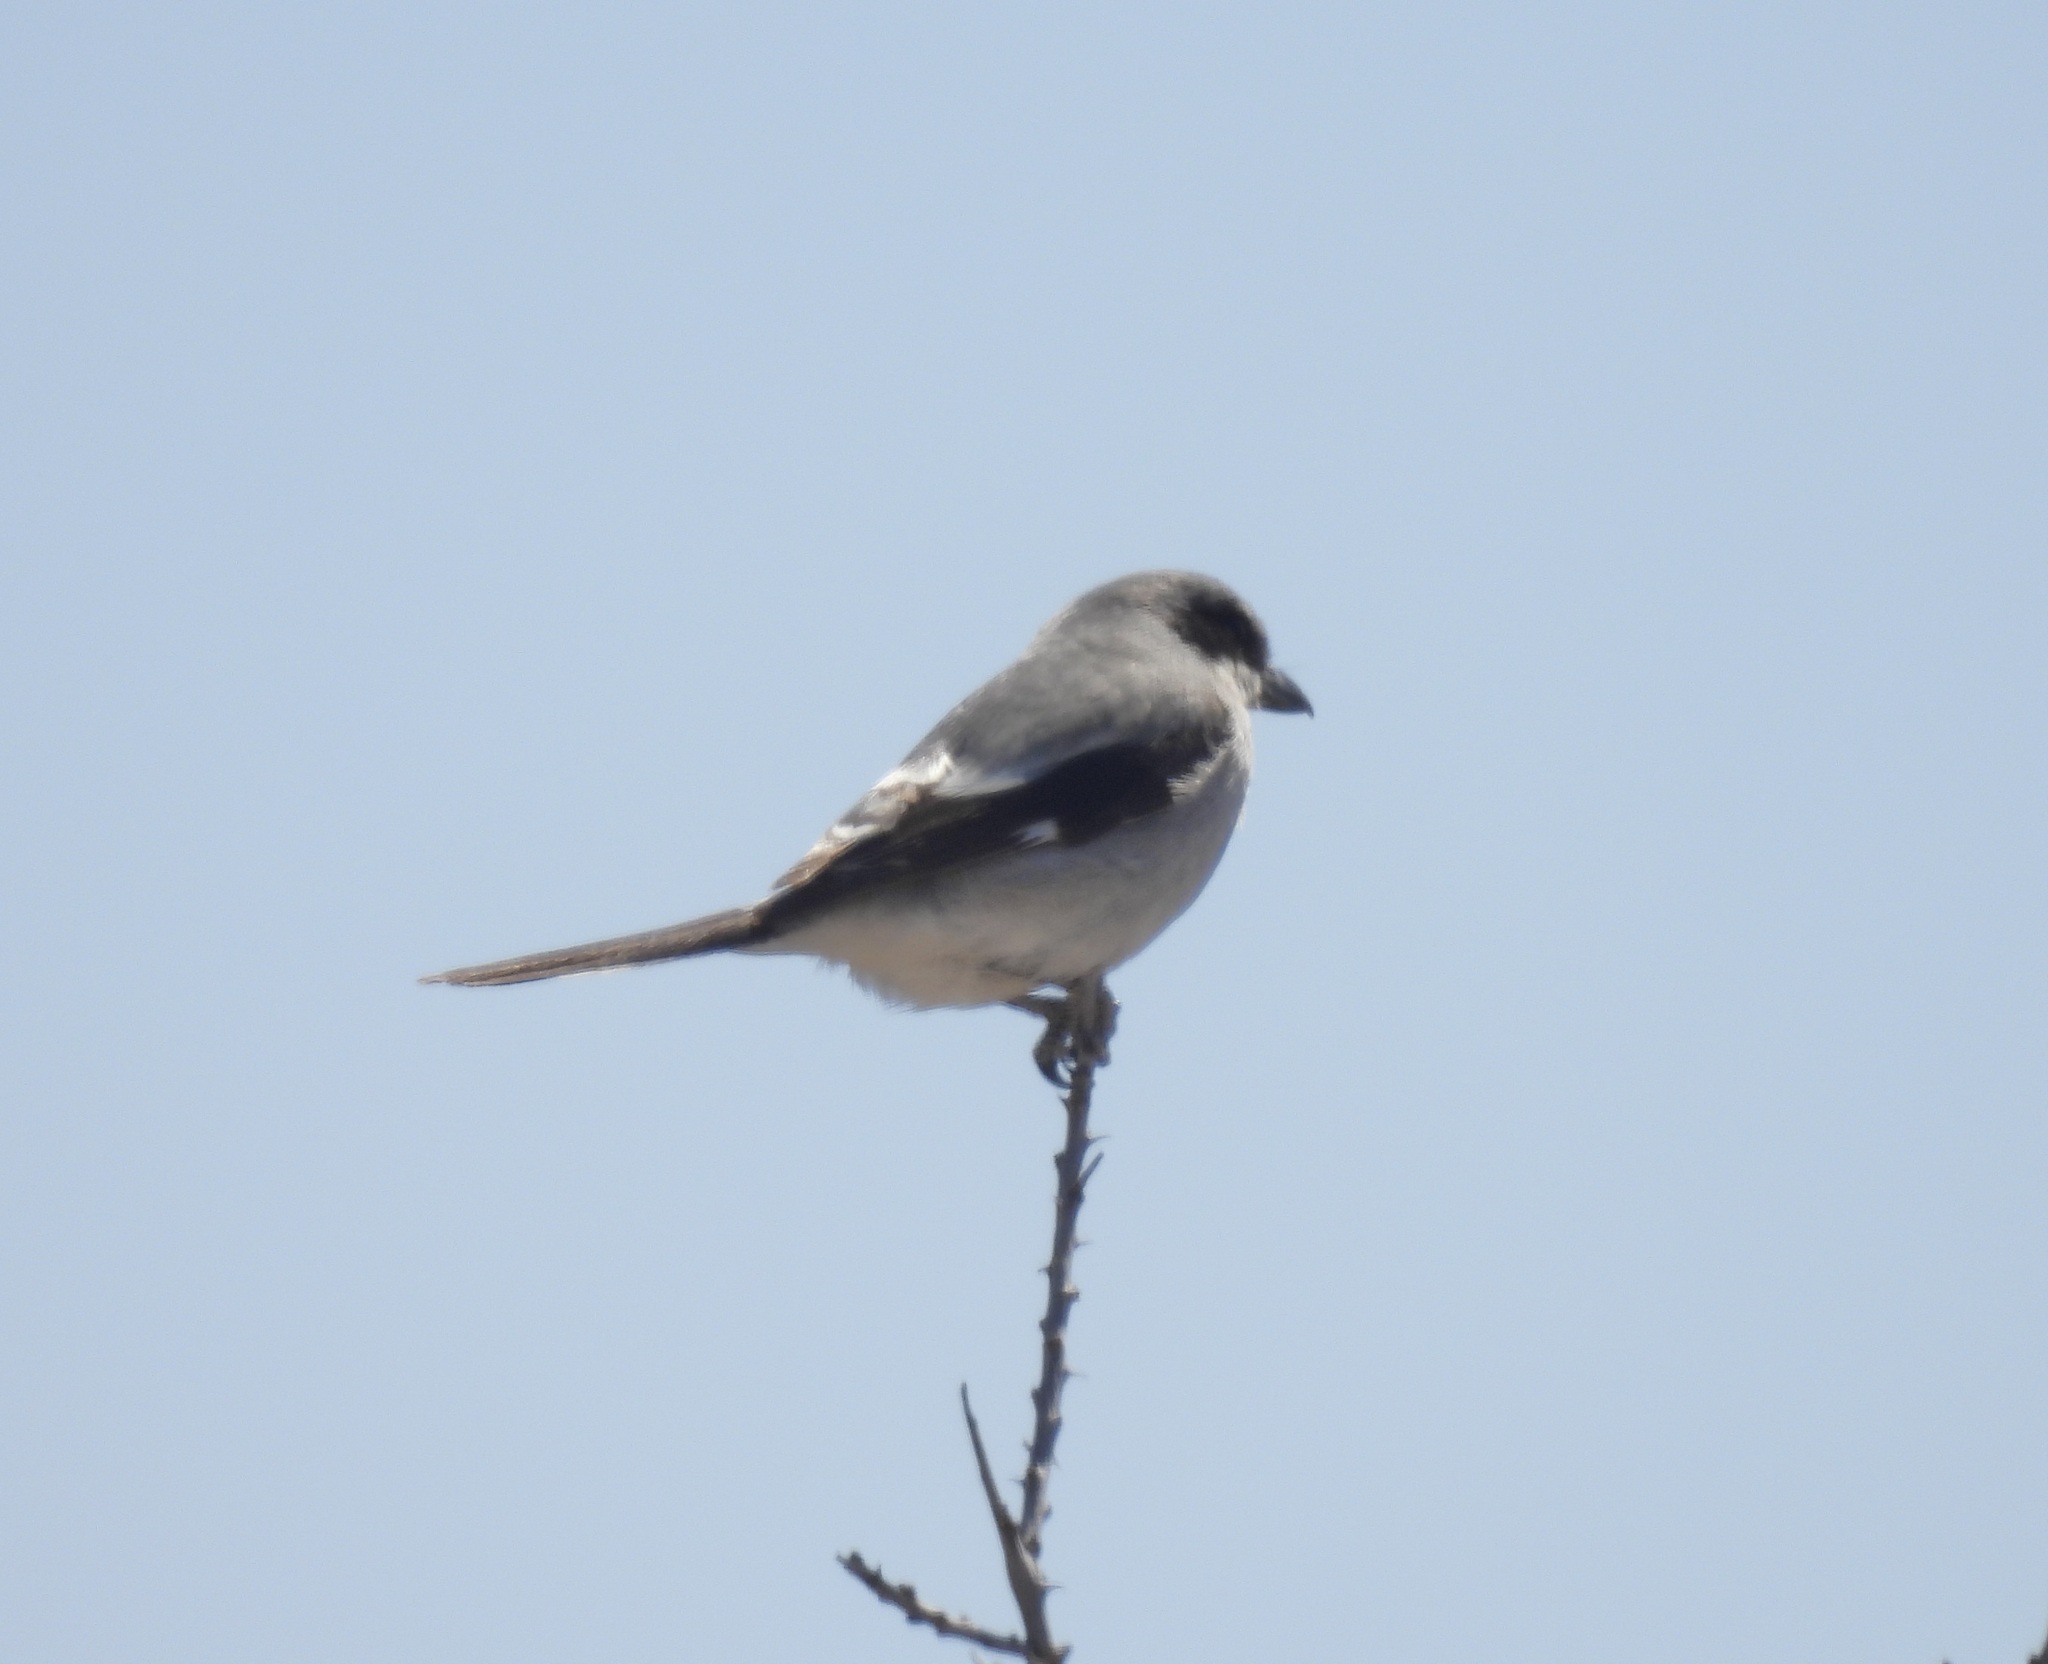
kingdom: Animalia
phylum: Chordata
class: Aves
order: Passeriformes
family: Laniidae
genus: Lanius
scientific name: Lanius ludovicianus
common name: Loggerhead shrike
